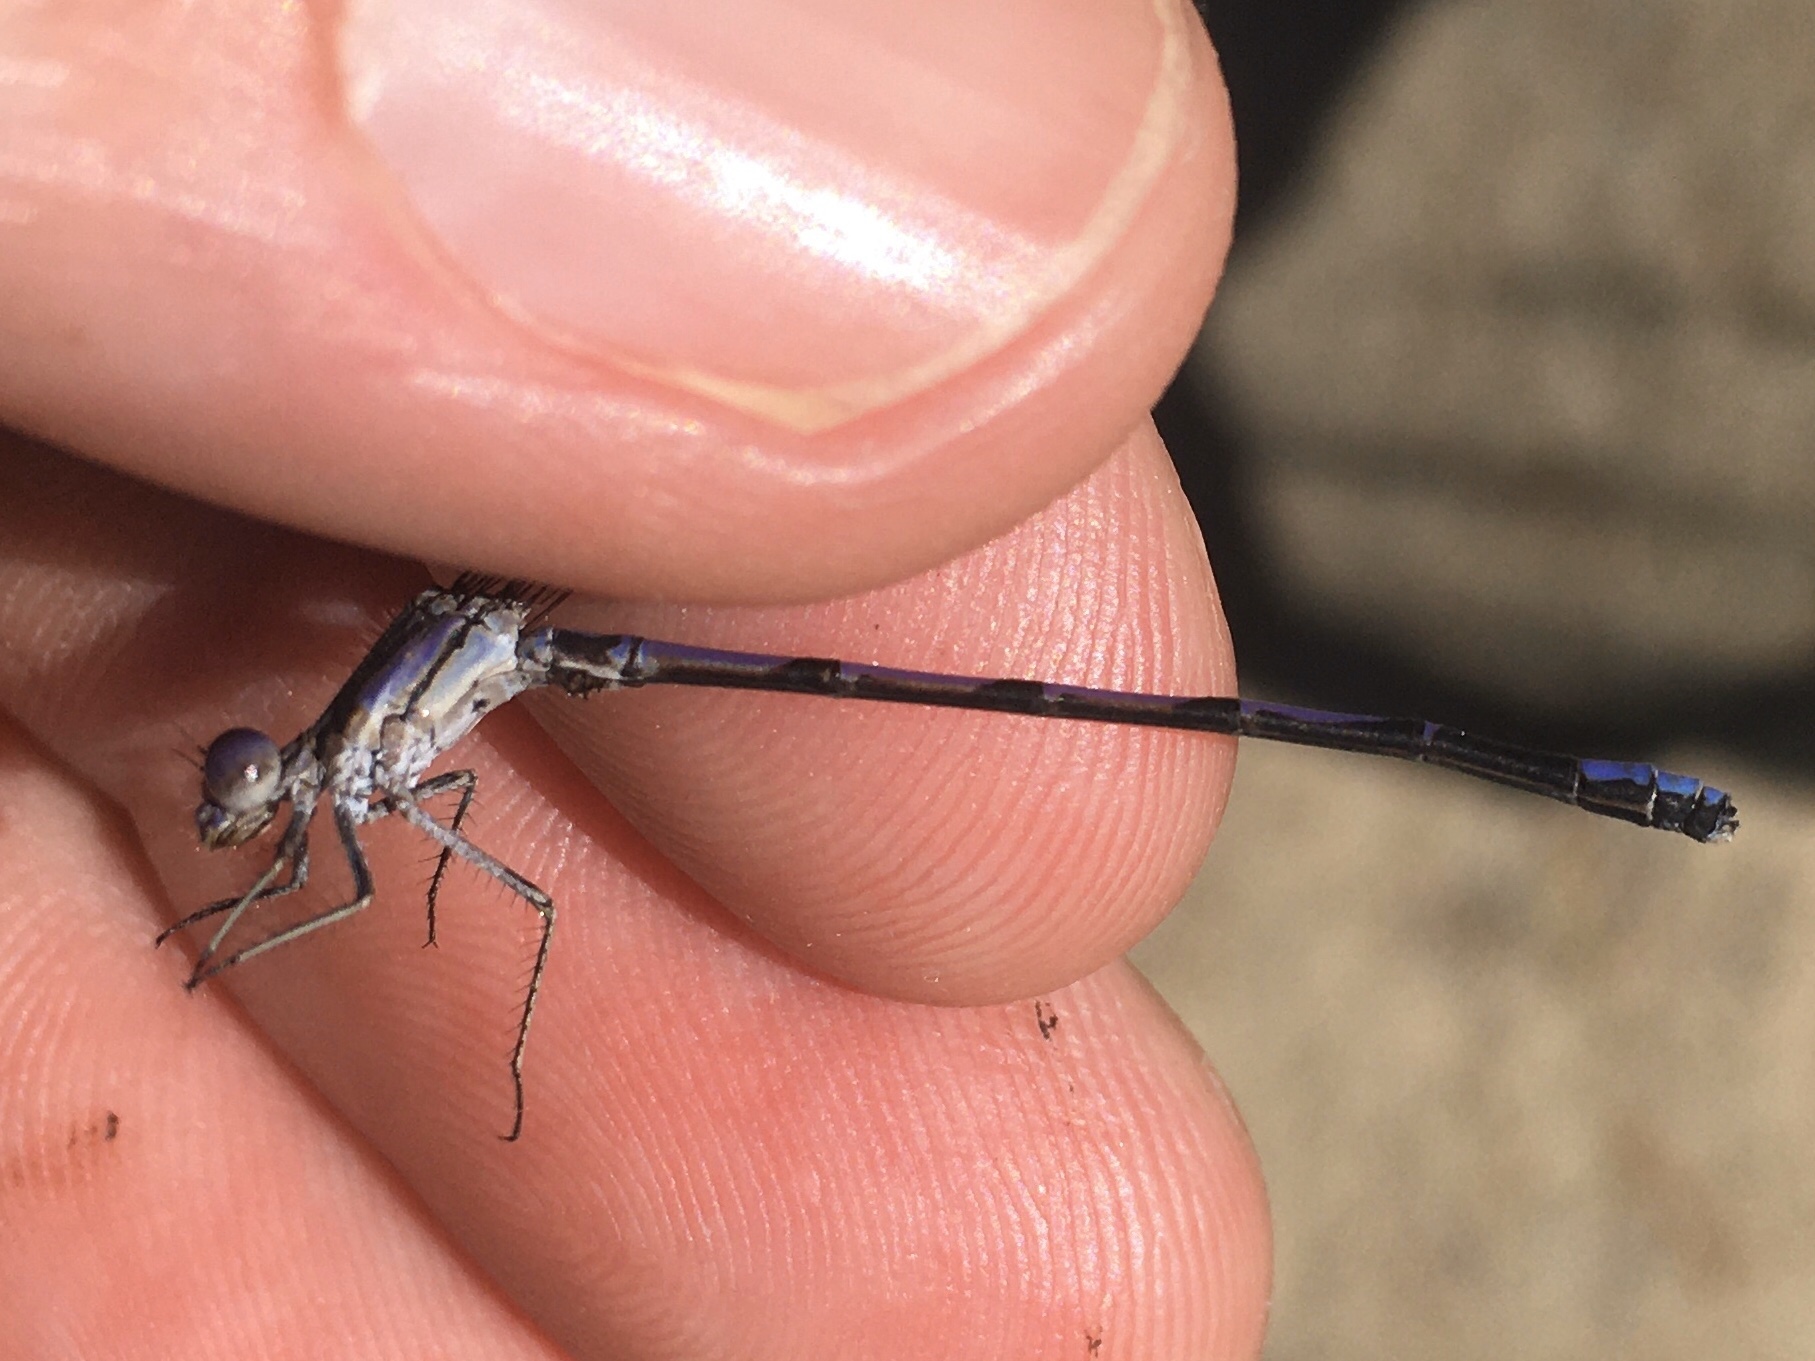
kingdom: Animalia
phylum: Arthropoda
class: Insecta
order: Odonata
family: Coenagrionidae
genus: Argia
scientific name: Argia fumipennis
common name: Variable dancer
